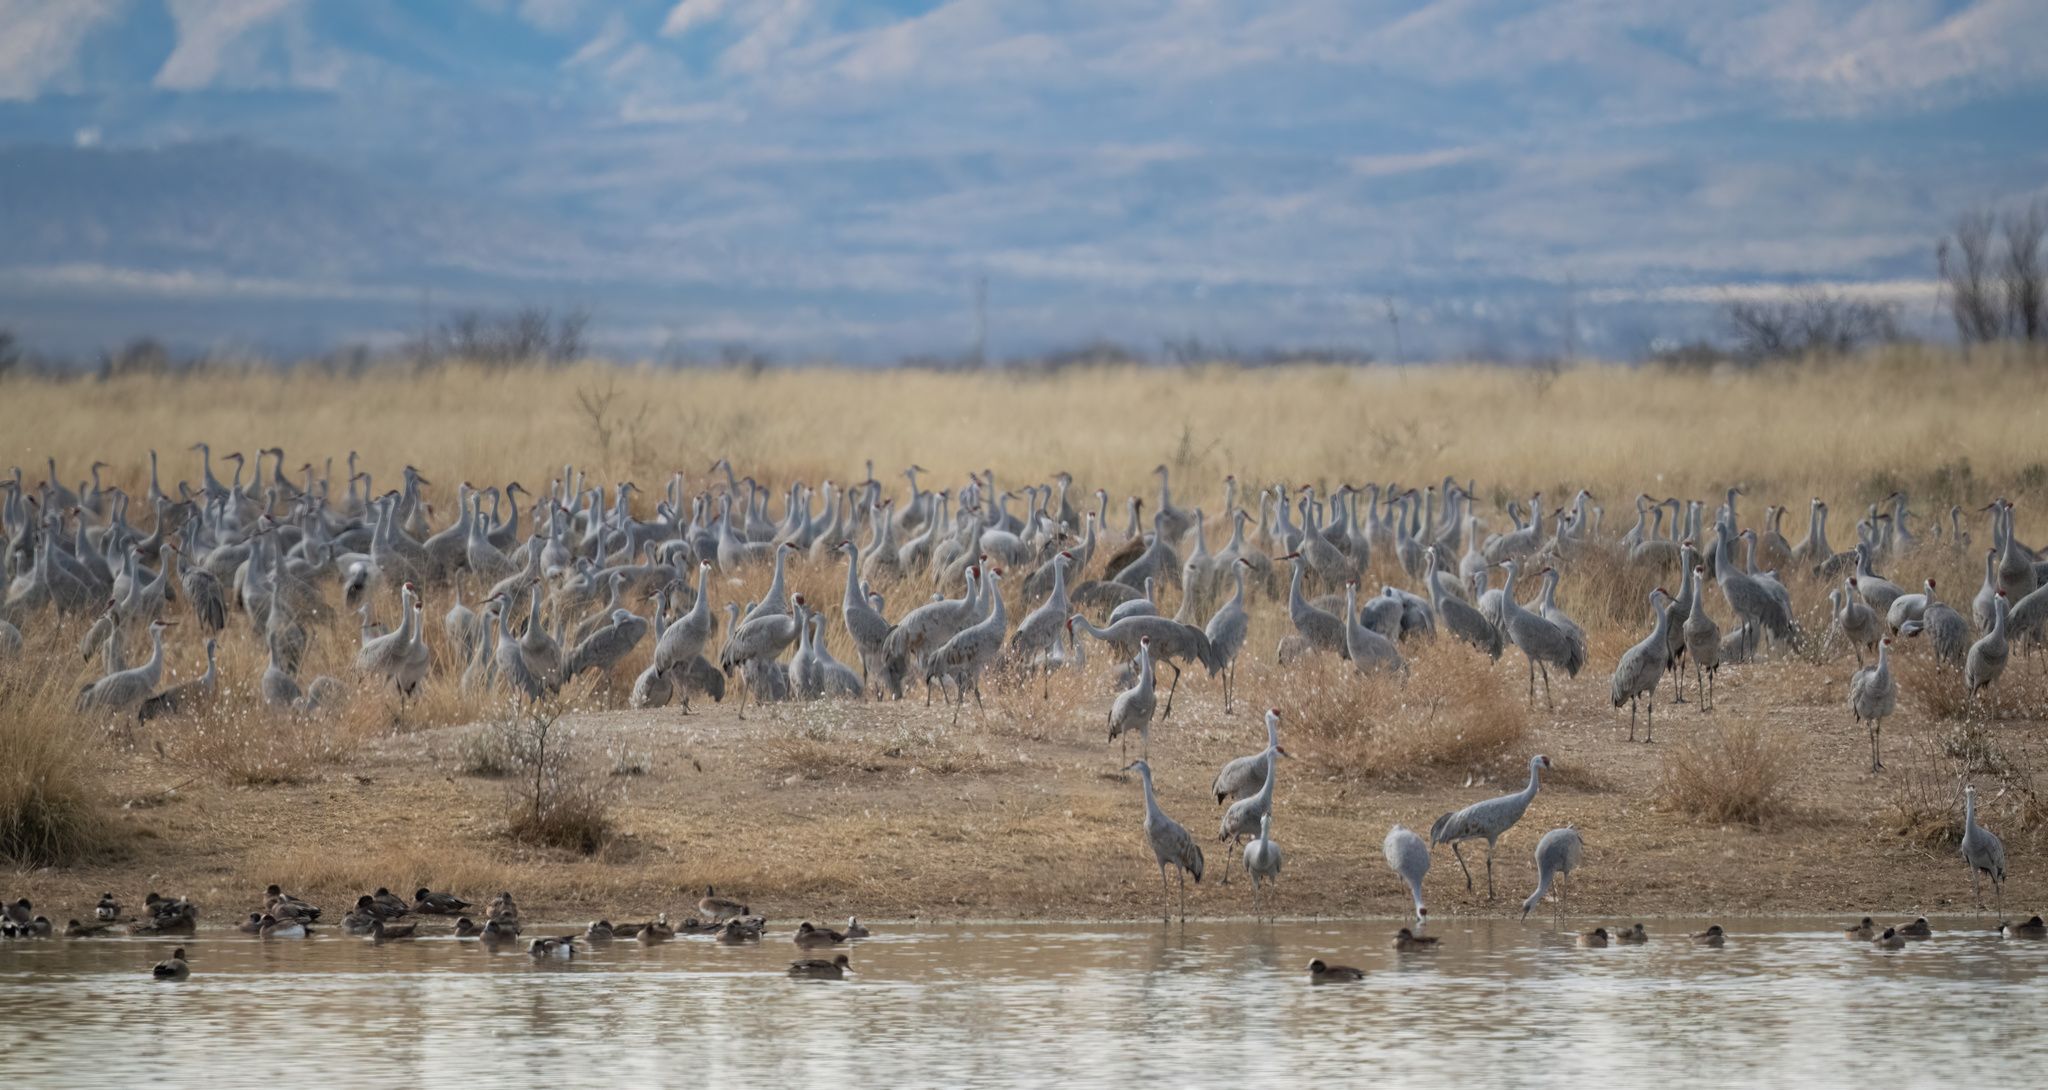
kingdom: Animalia
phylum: Chordata
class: Aves
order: Gruiformes
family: Gruidae
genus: Grus
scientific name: Grus canadensis
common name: Sandhill crane
